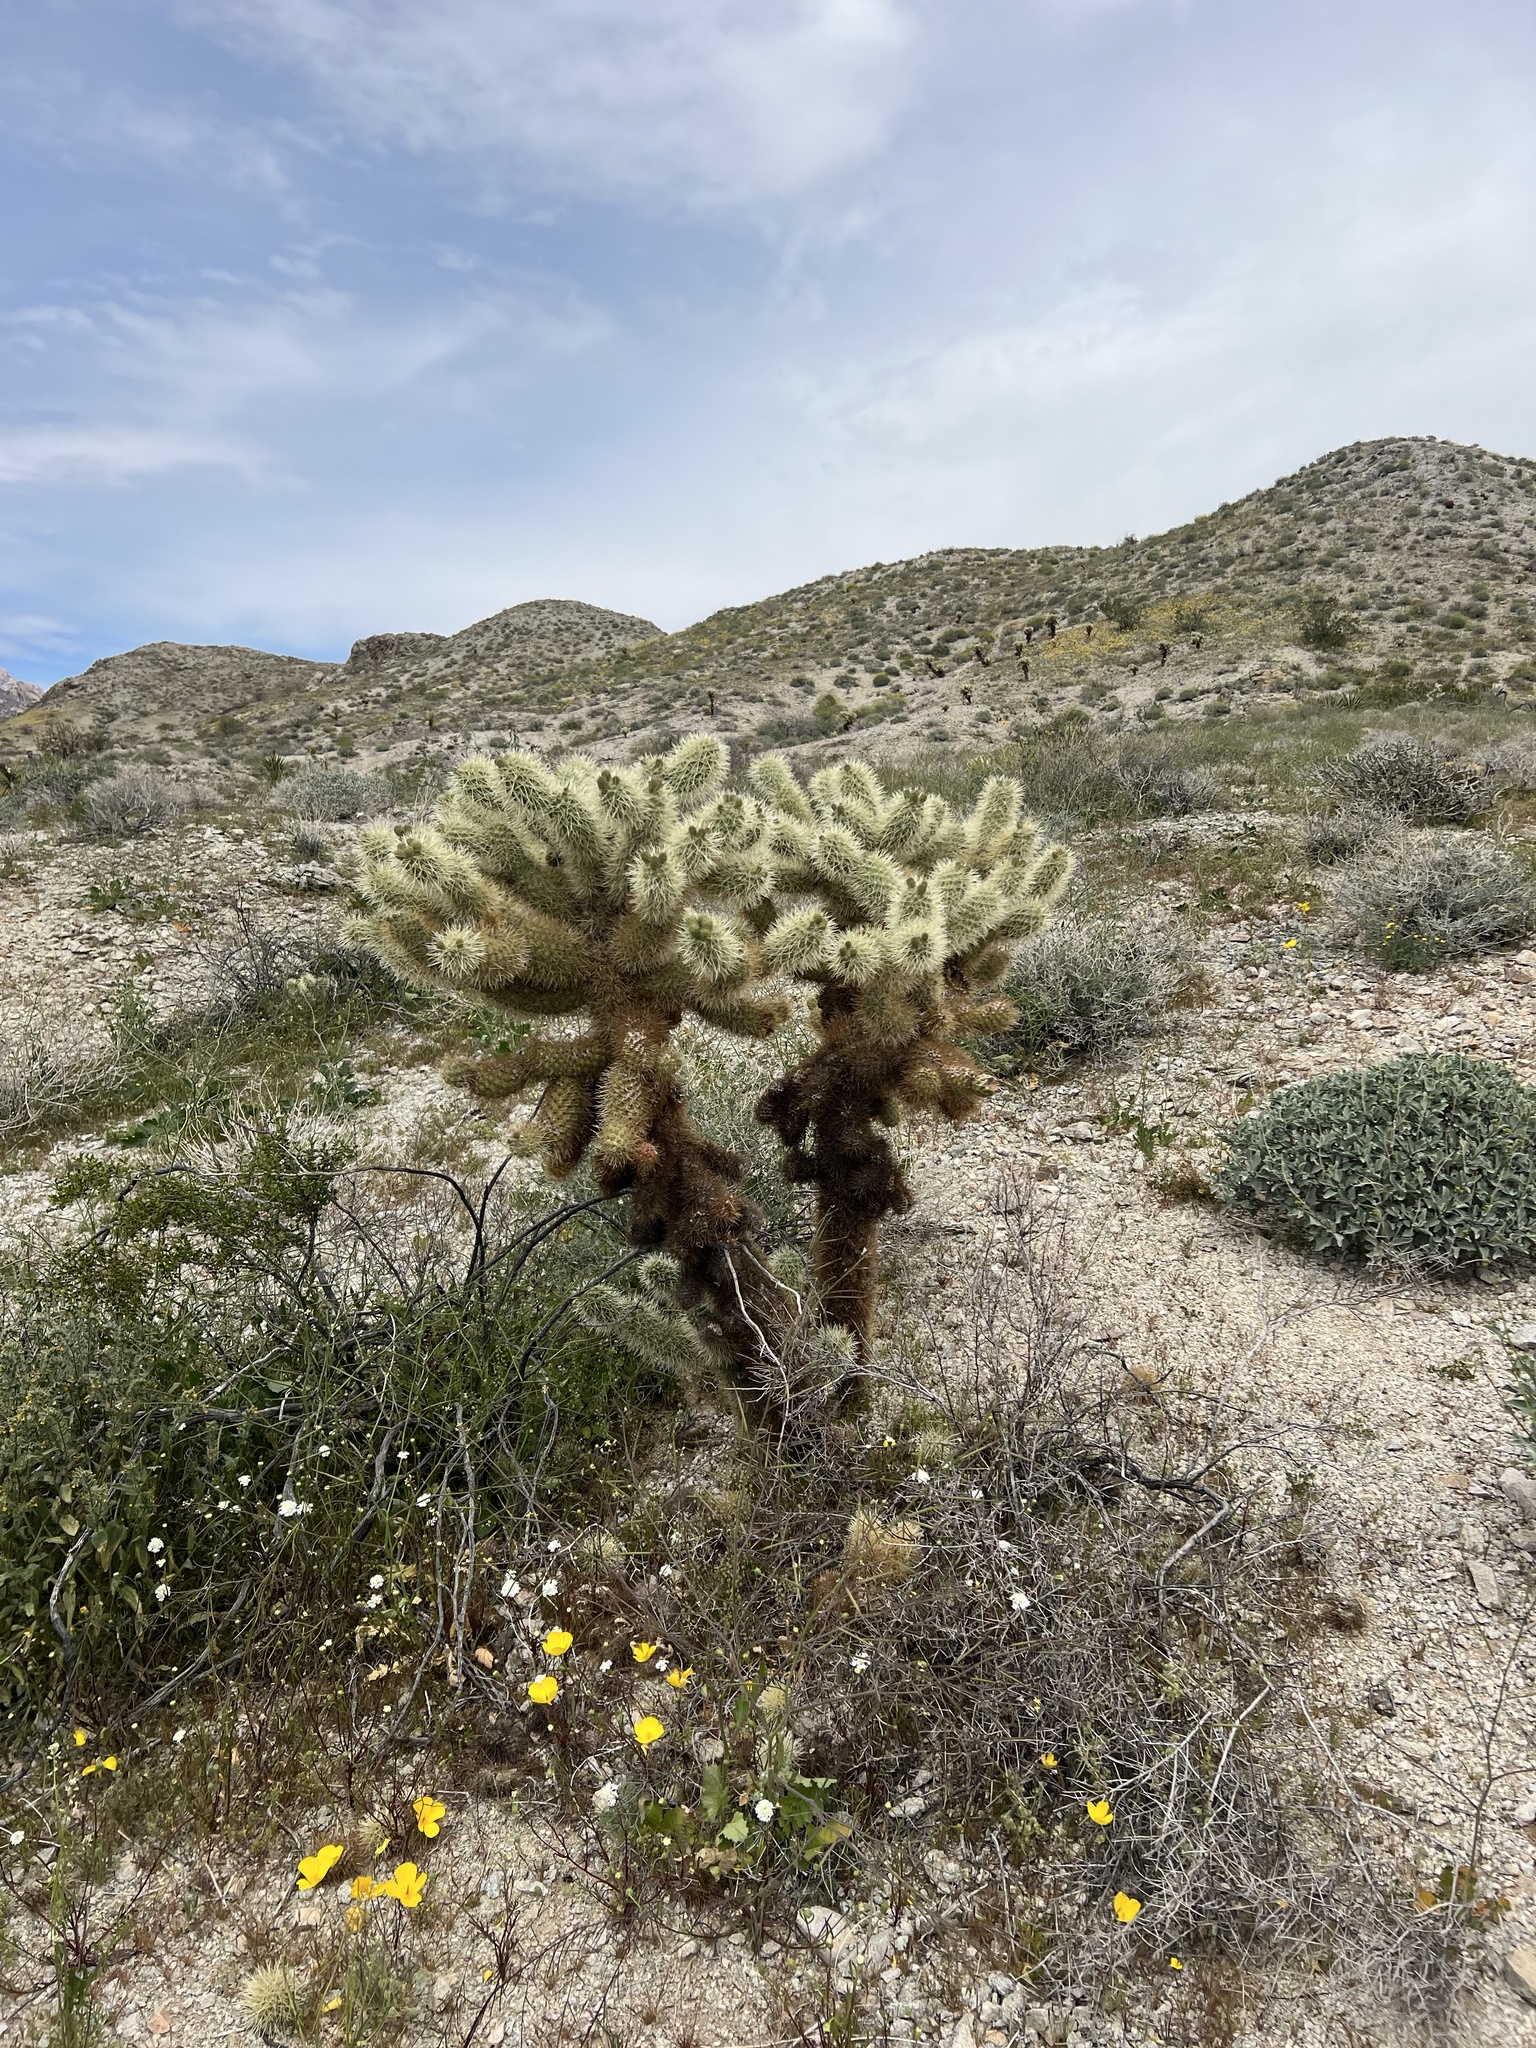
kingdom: Plantae
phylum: Tracheophyta
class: Magnoliopsida
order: Caryophyllales
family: Cactaceae
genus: Cylindropuntia
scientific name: Cylindropuntia fosbergii
